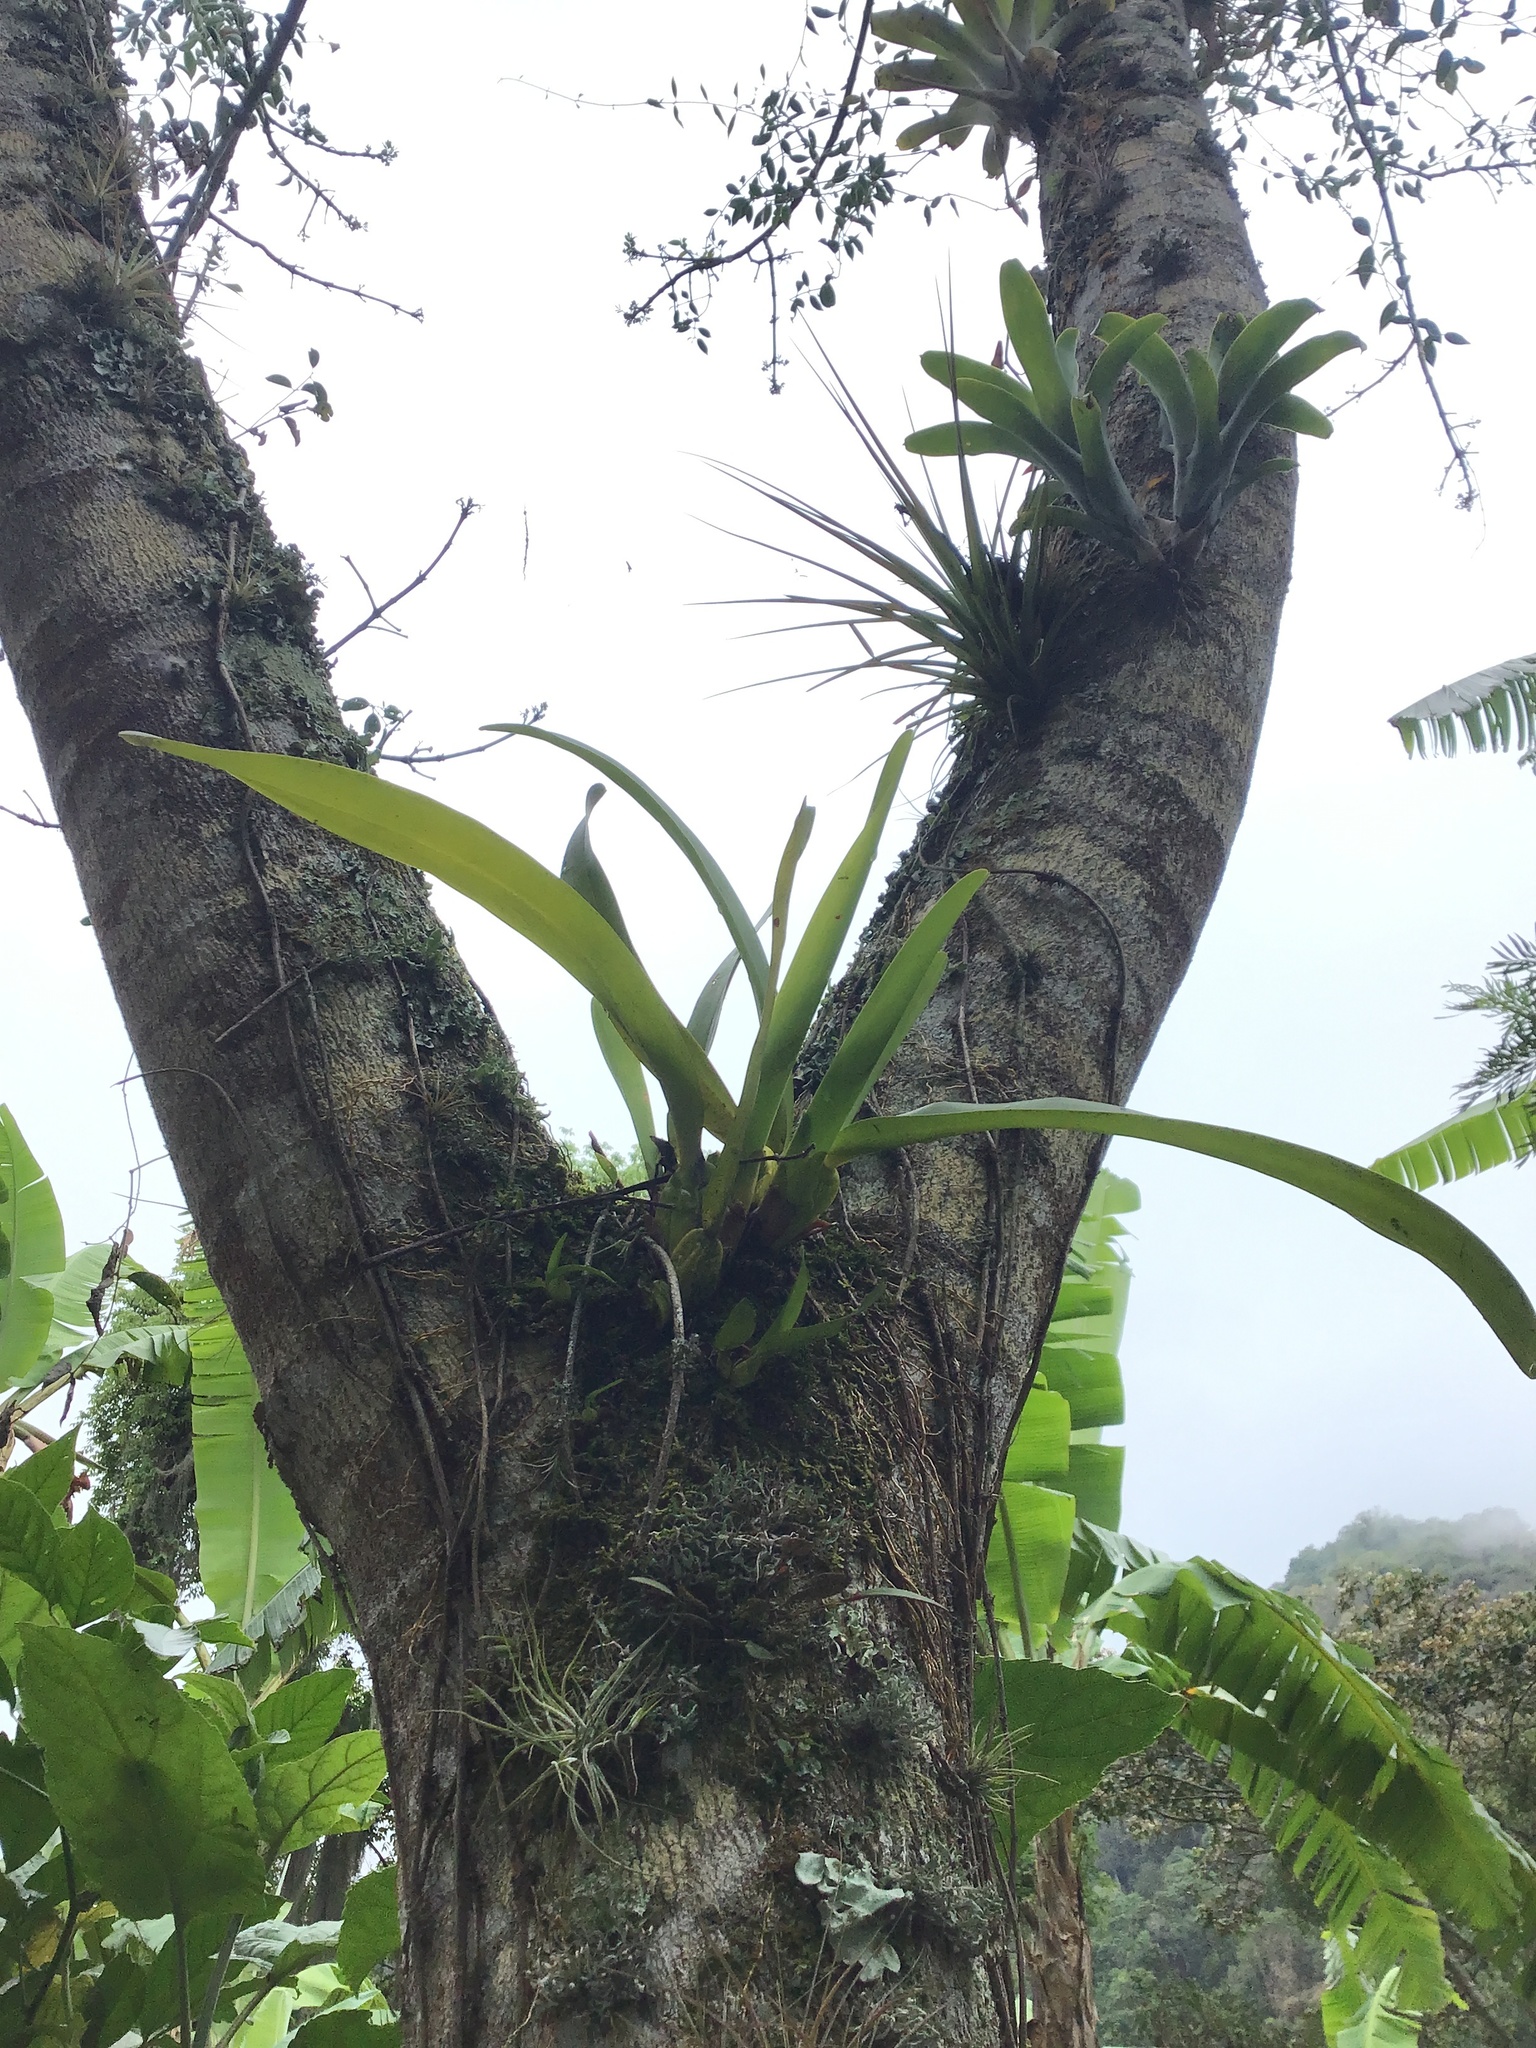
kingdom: Plantae
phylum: Tracheophyta
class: Liliopsida
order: Asparagales
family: Orchidaceae
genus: Maxillaria
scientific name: Maxillaria densa
